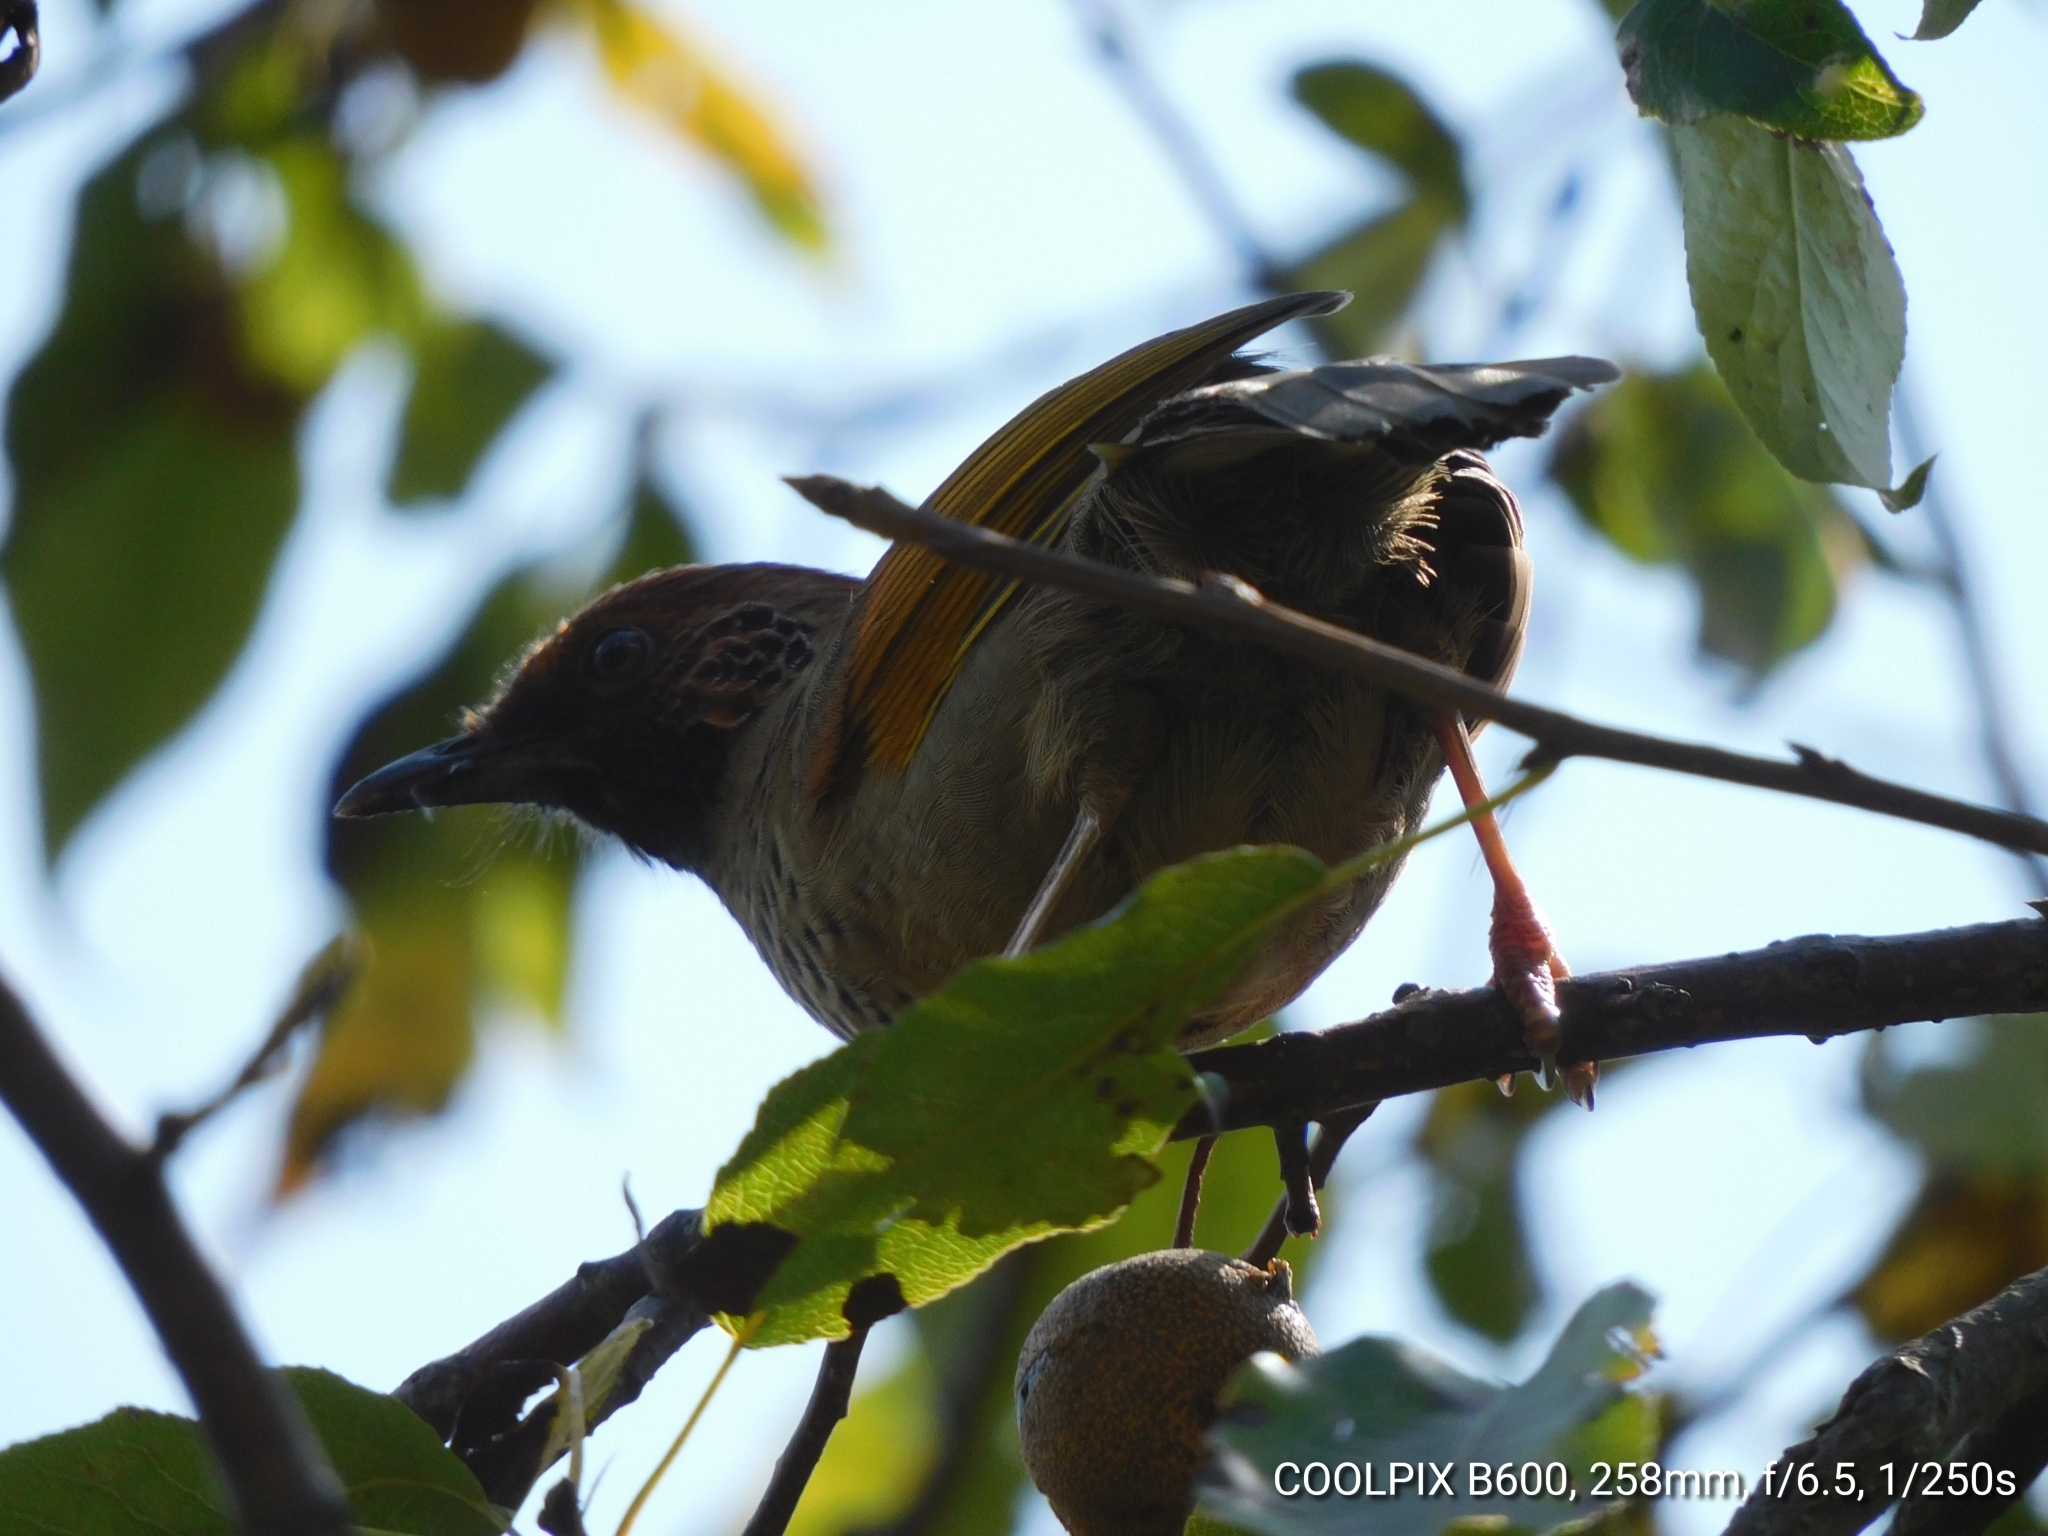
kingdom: Animalia
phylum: Chordata
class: Aves
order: Passeriformes
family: Leiothrichidae
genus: Trochalopteron
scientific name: Trochalopteron erythrocephalum
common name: Chestnut-crowned laughingthrush
